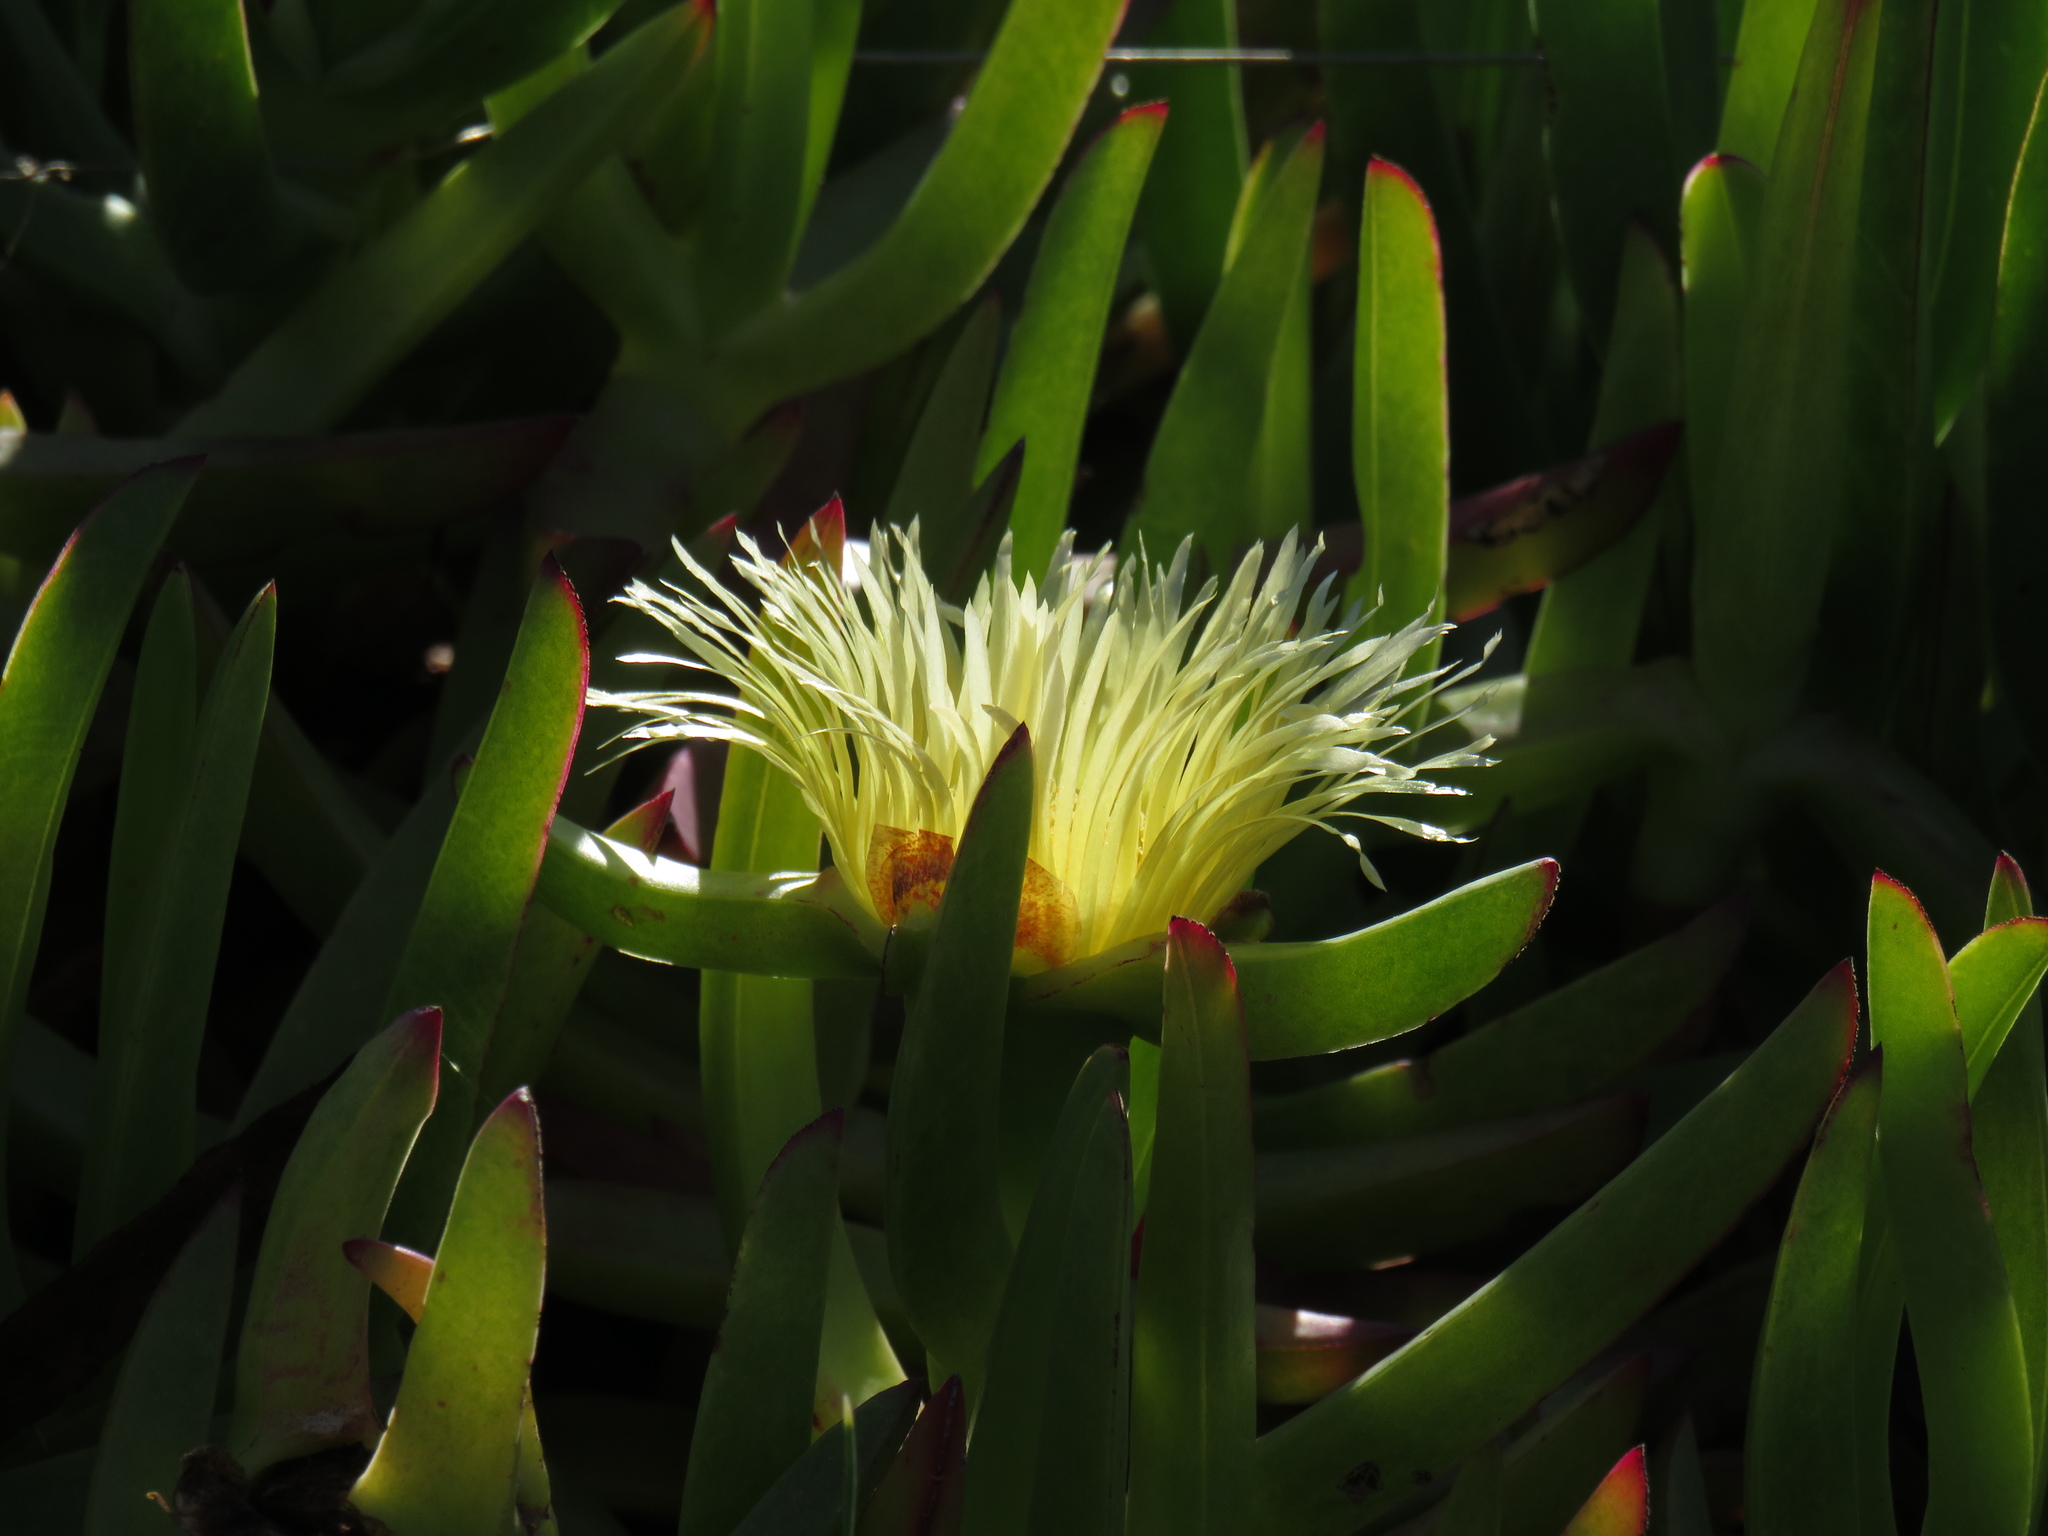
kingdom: Plantae
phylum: Tracheophyta
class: Magnoliopsida
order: Caryophyllales
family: Aizoaceae
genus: Carpobrotus
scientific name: Carpobrotus edulis
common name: Hottentot-fig
